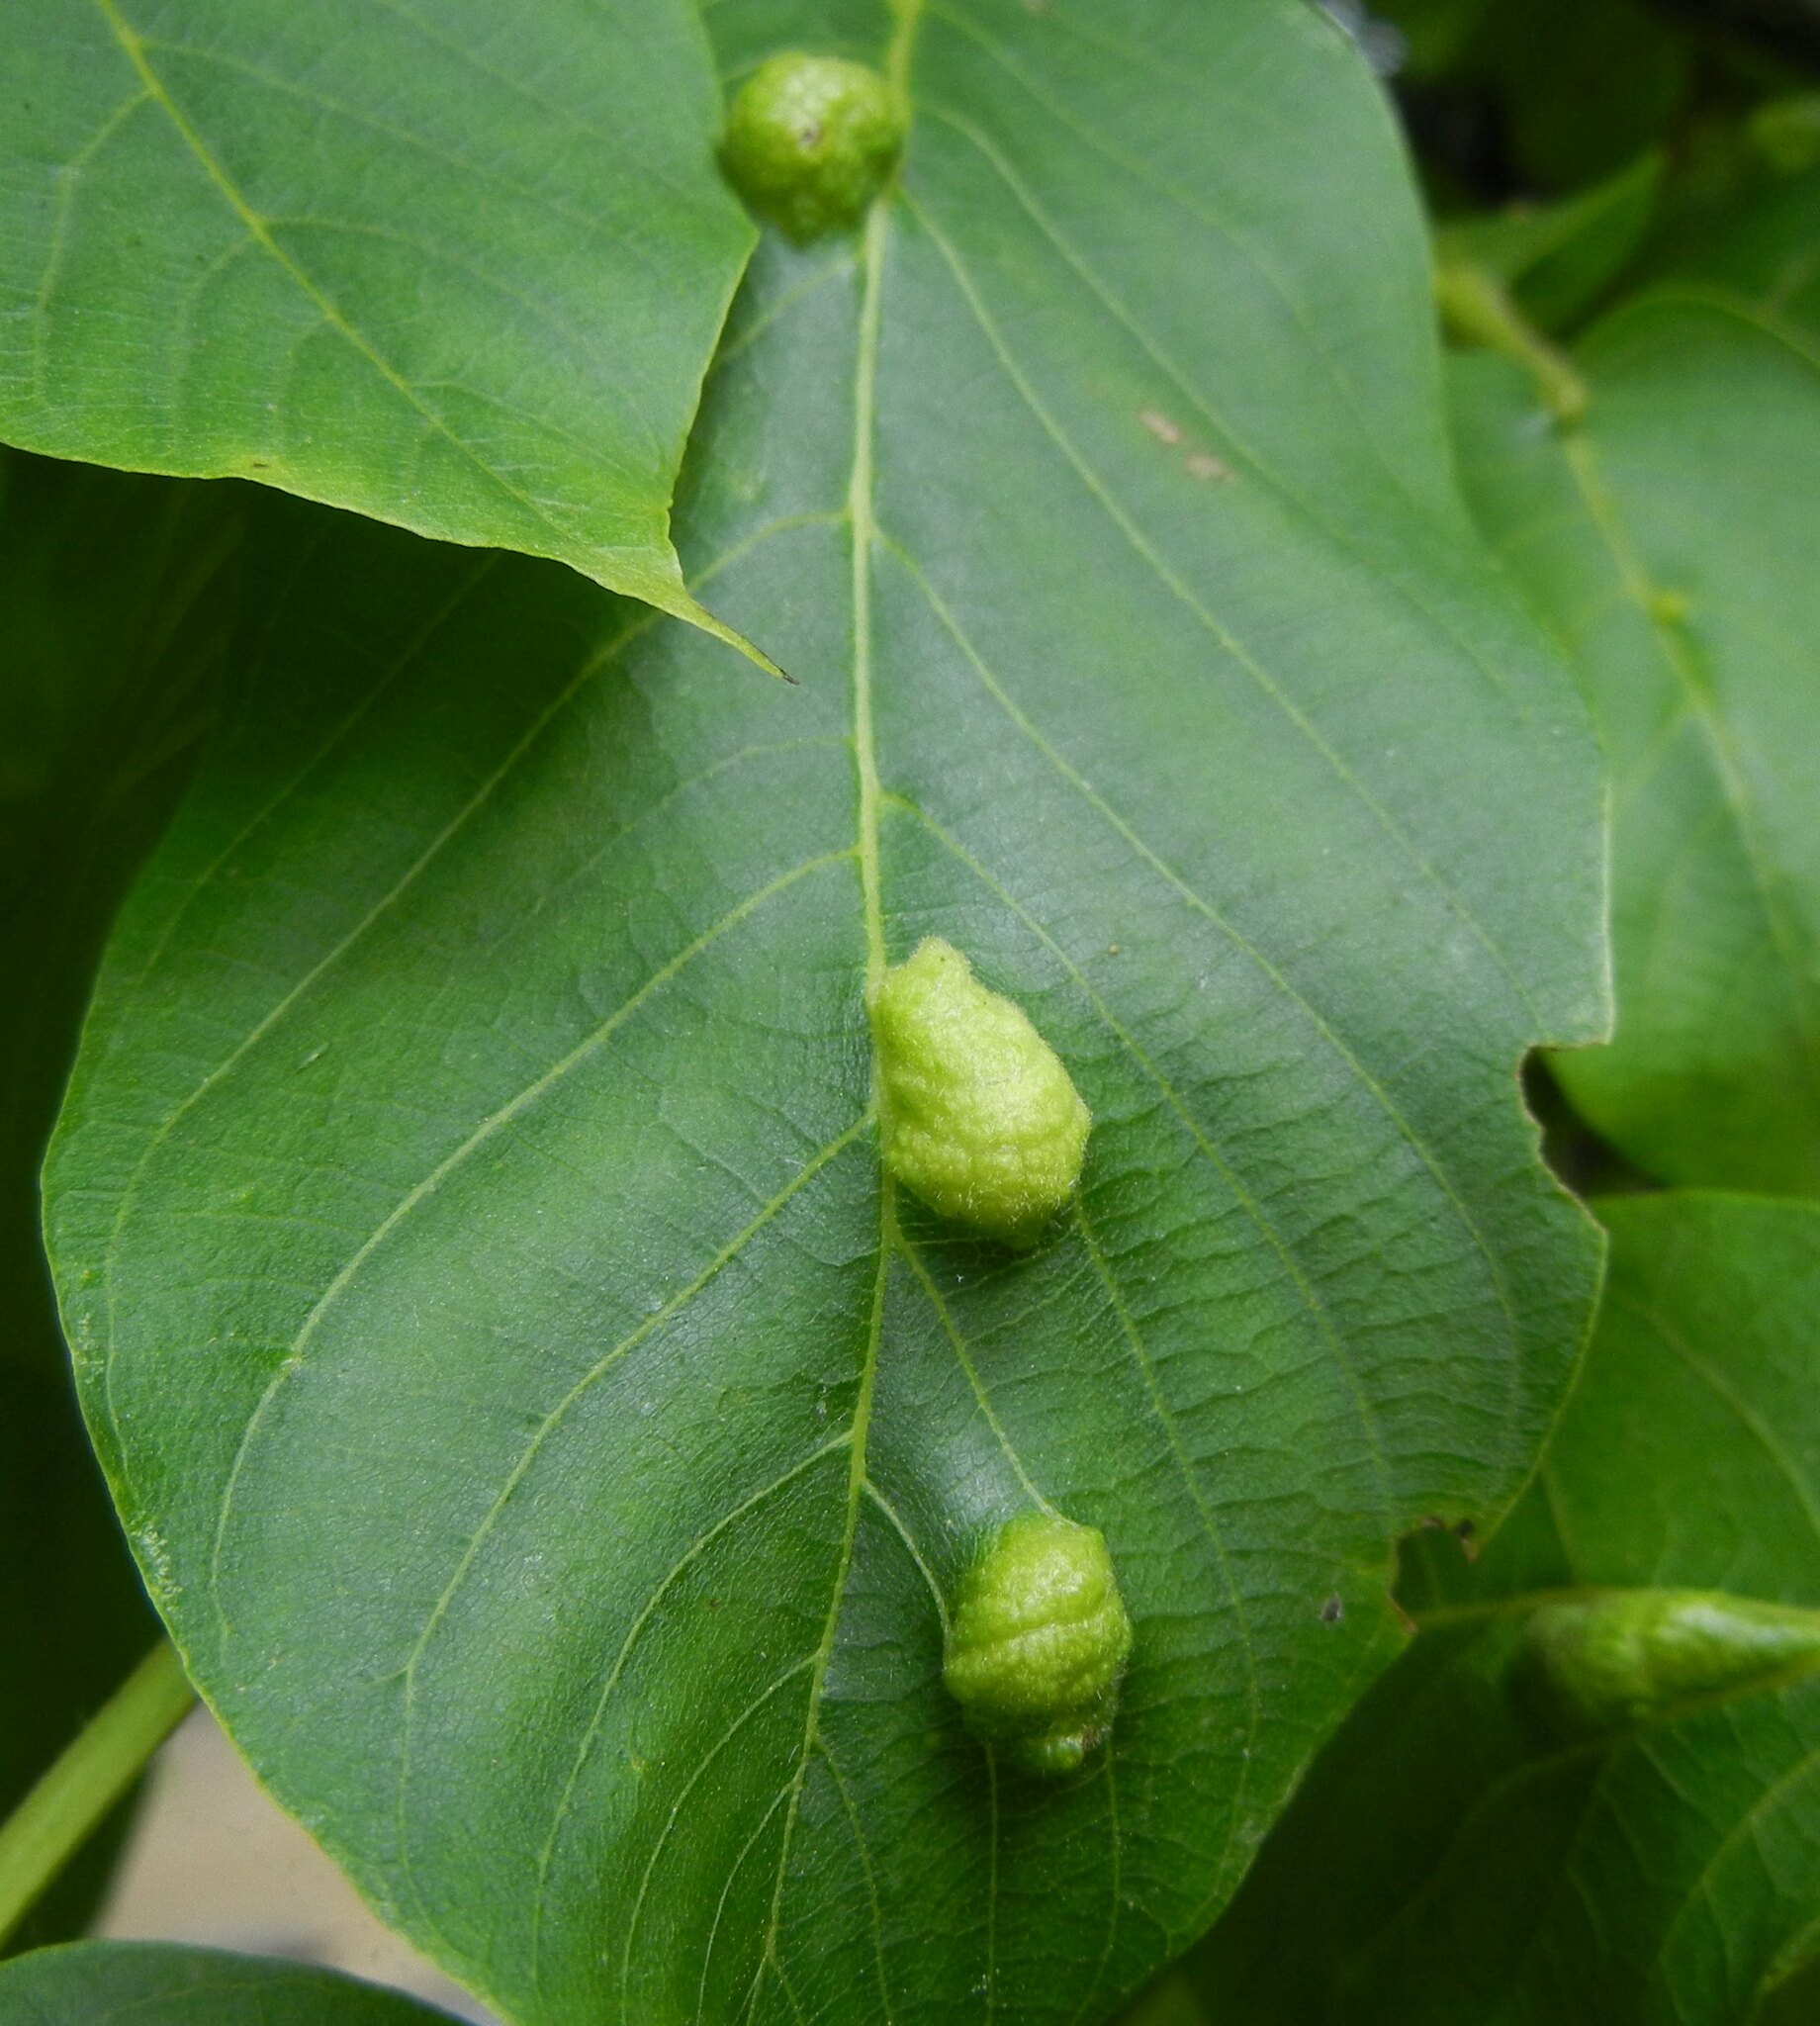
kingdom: Animalia
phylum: Arthropoda
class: Arachnida
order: Trombidiformes
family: Eriophyidae
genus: Aceria
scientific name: Aceria erinea
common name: Persian walnut erineum mite
